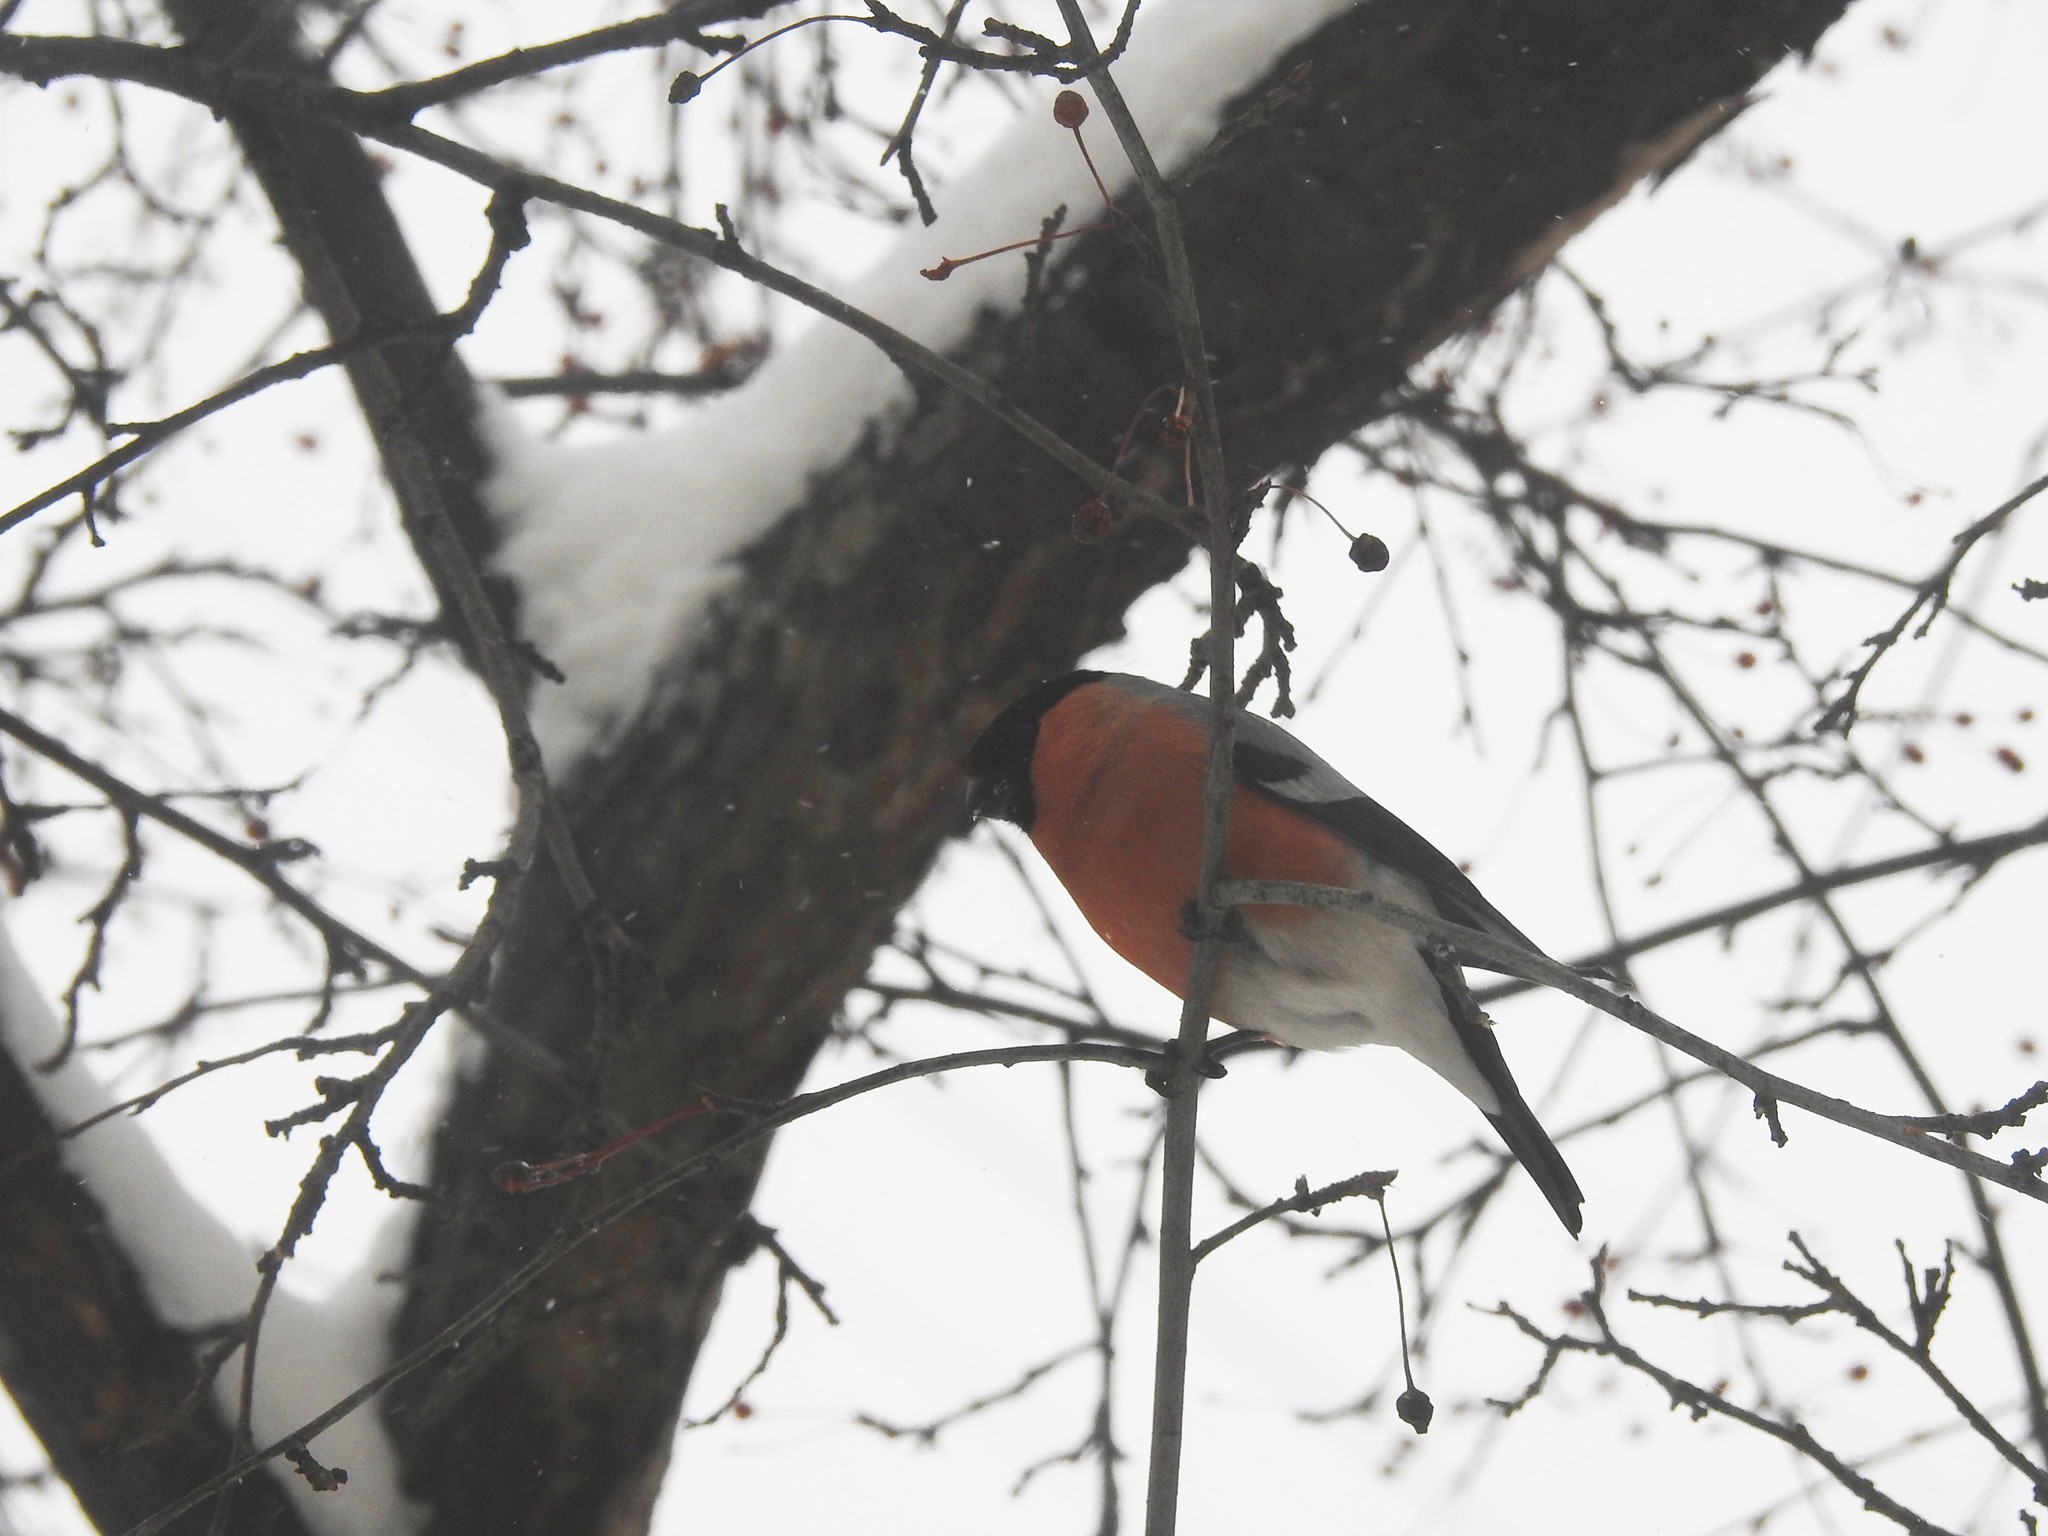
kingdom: Animalia
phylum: Chordata
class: Aves
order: Passeriformes
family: Fringillidae
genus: Pyrrhula
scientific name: Pyrrhula pyrrhula
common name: Eurasian bullfinch
